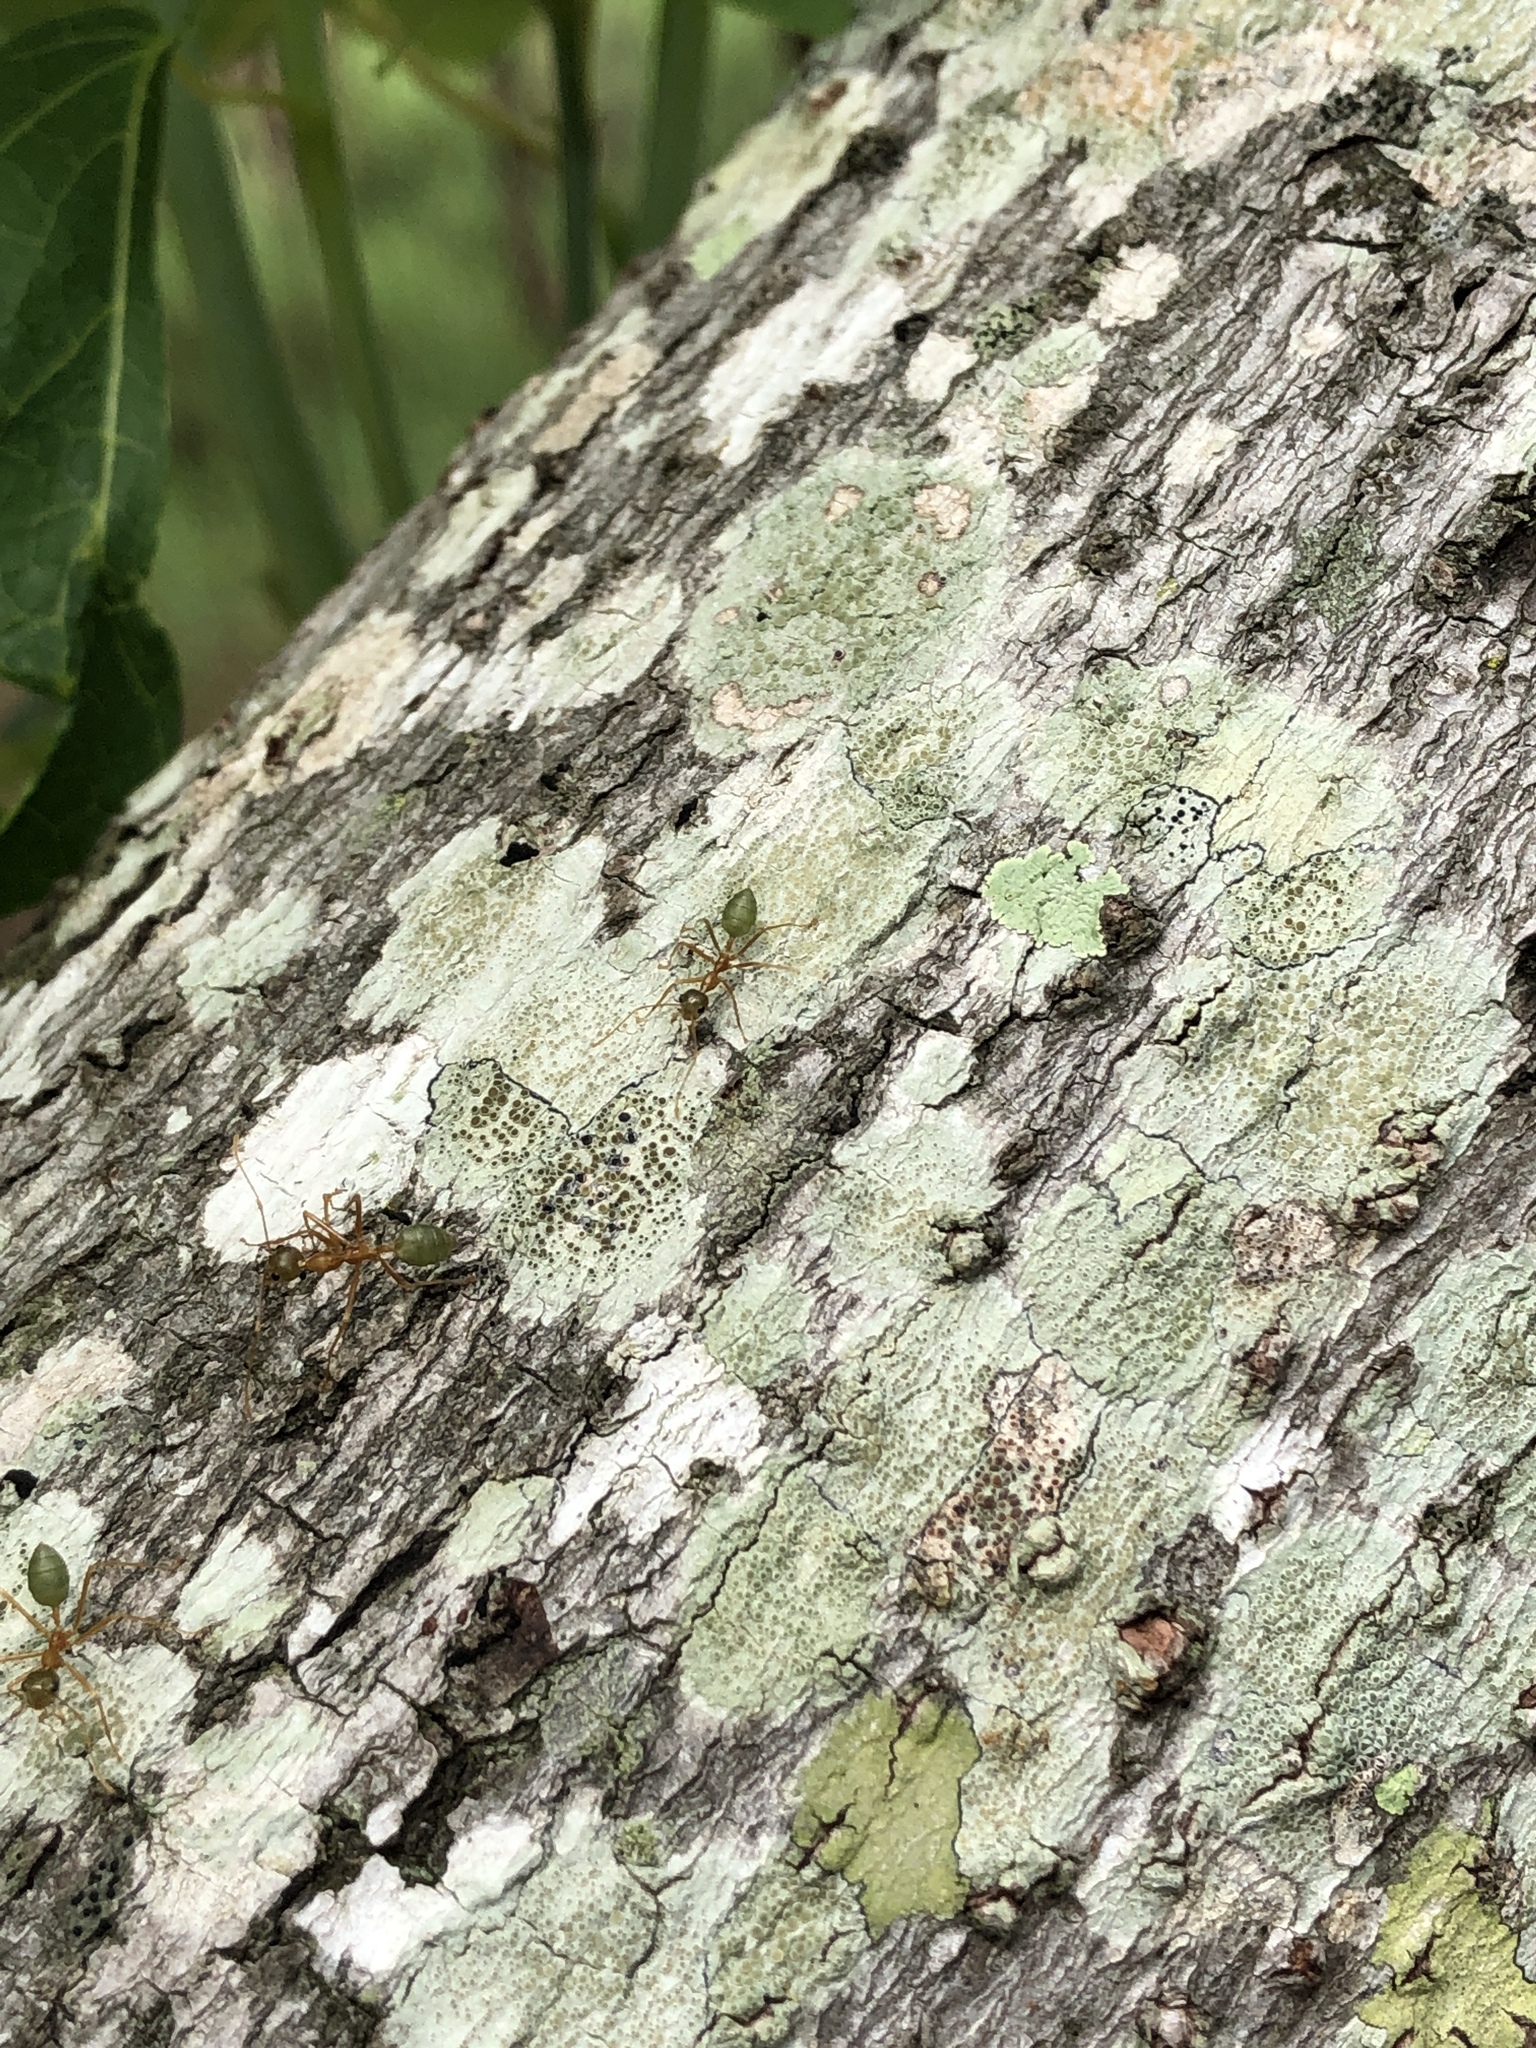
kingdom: Animalia
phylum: Arthropoda
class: Insecta
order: Hymenoptera
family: Formicidae
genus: Oecophylla
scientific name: Oecophylla smaragdina
